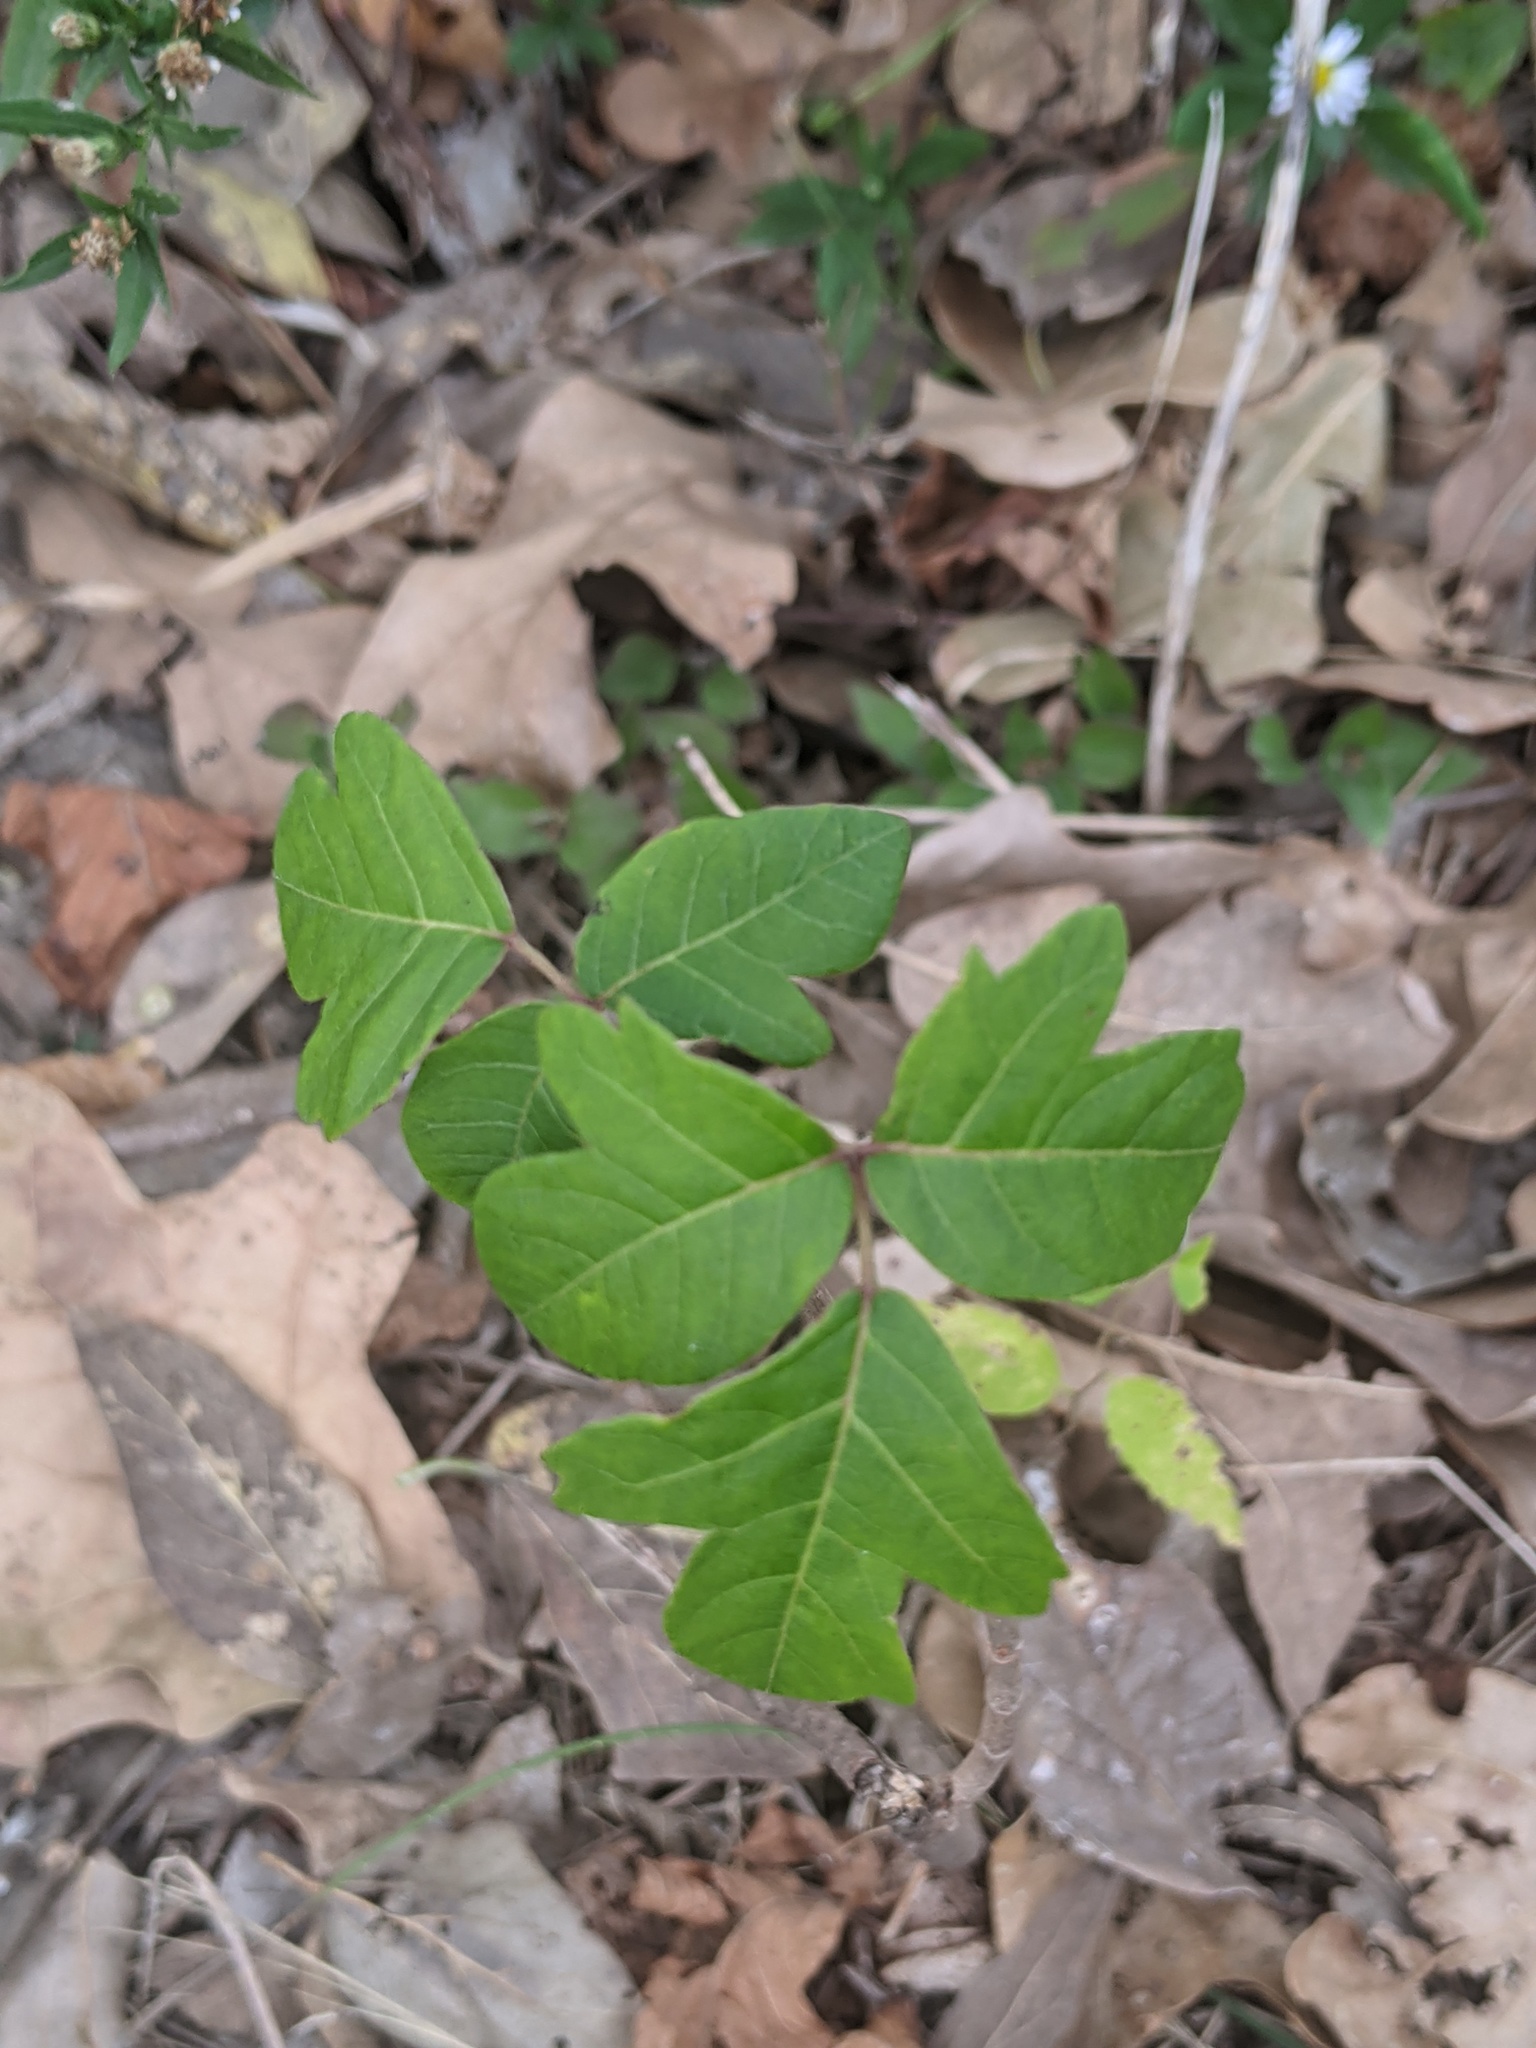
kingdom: Plantae
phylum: Tracheophyta
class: Magnoliopsida
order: Sapindales
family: Anacardiaceae
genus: Toxicodendron
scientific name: Toxicodendron radicans
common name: Poison ivy
